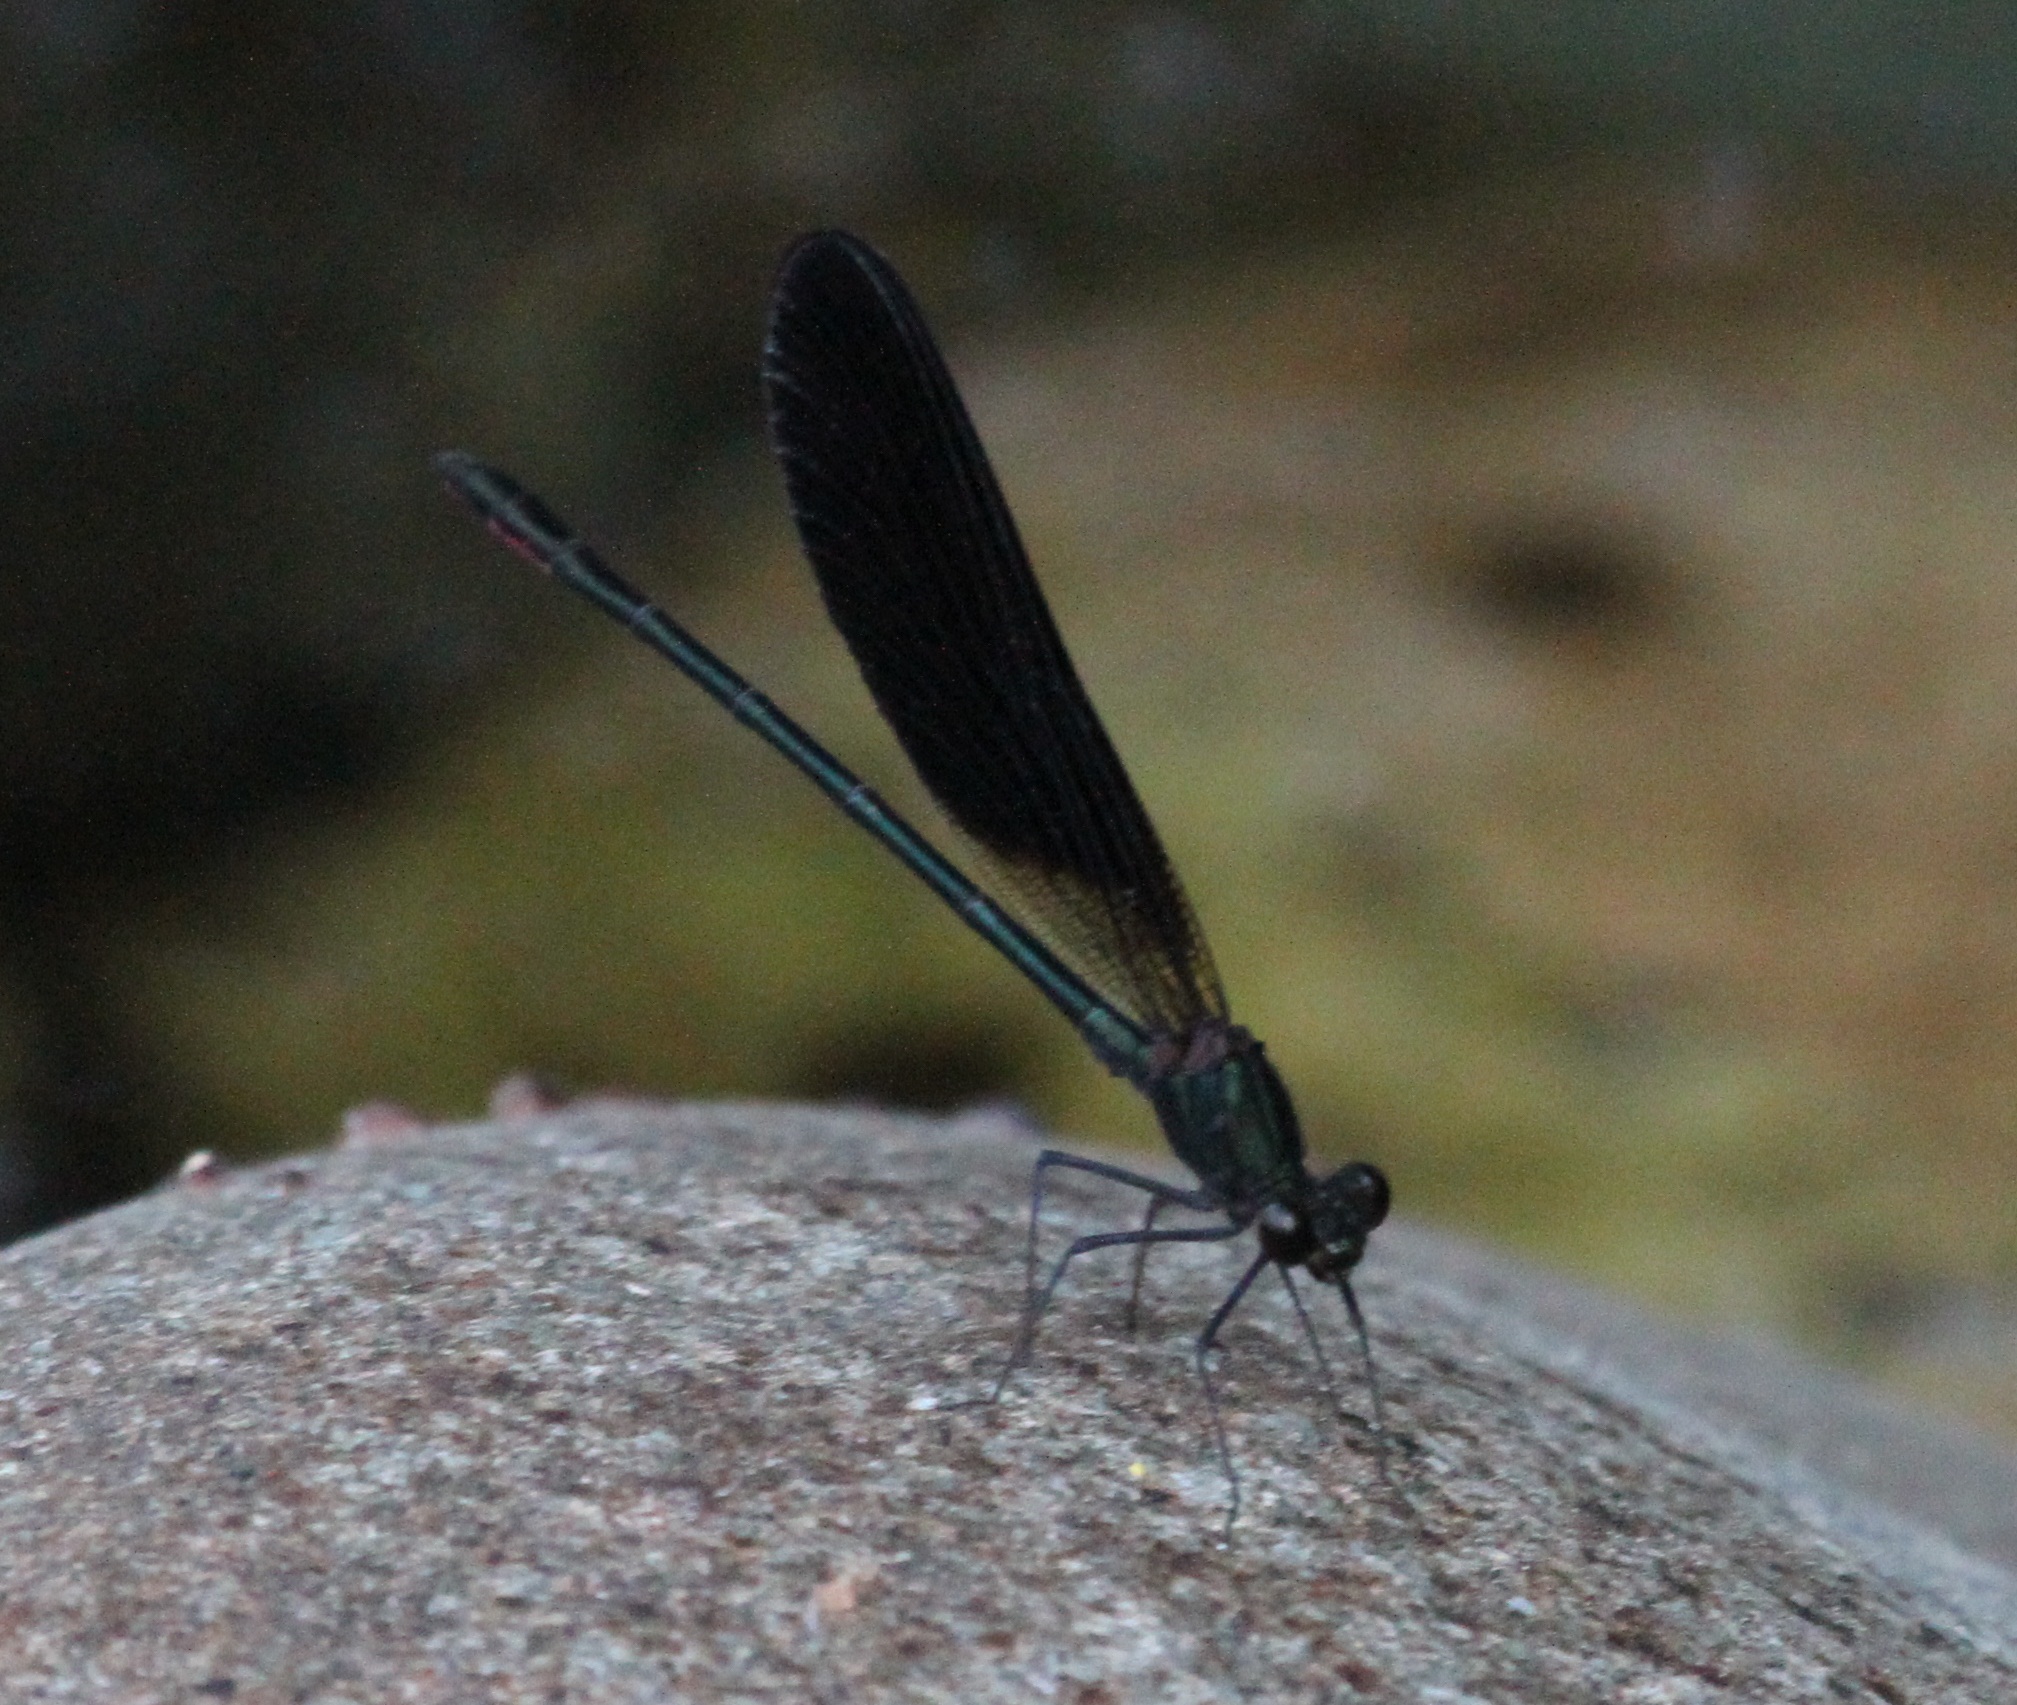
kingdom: Animalia
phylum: Arthropoda
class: Insecta
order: Odonata
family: Calopterygidae
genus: Calopteryx
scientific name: Calopteryx haemorrhoidalis
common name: Copper demoiselle
